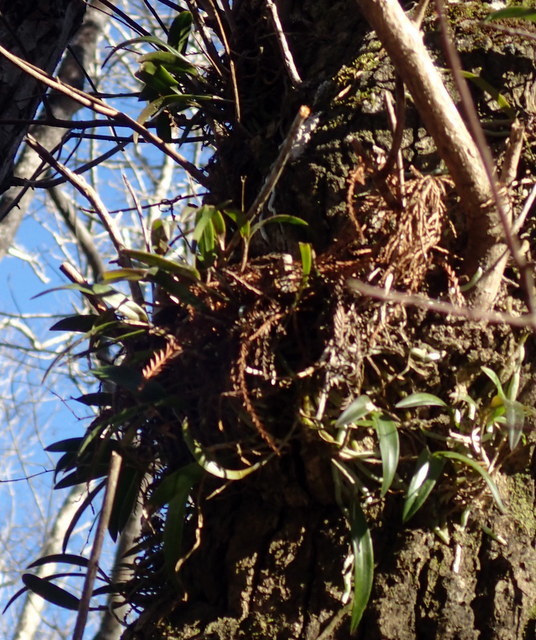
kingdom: Plantae
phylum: Tracheophyta
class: Liliopsida
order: Asparagales
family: Orchidaceae
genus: Epidendrum
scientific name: Epidendrum conopseum
